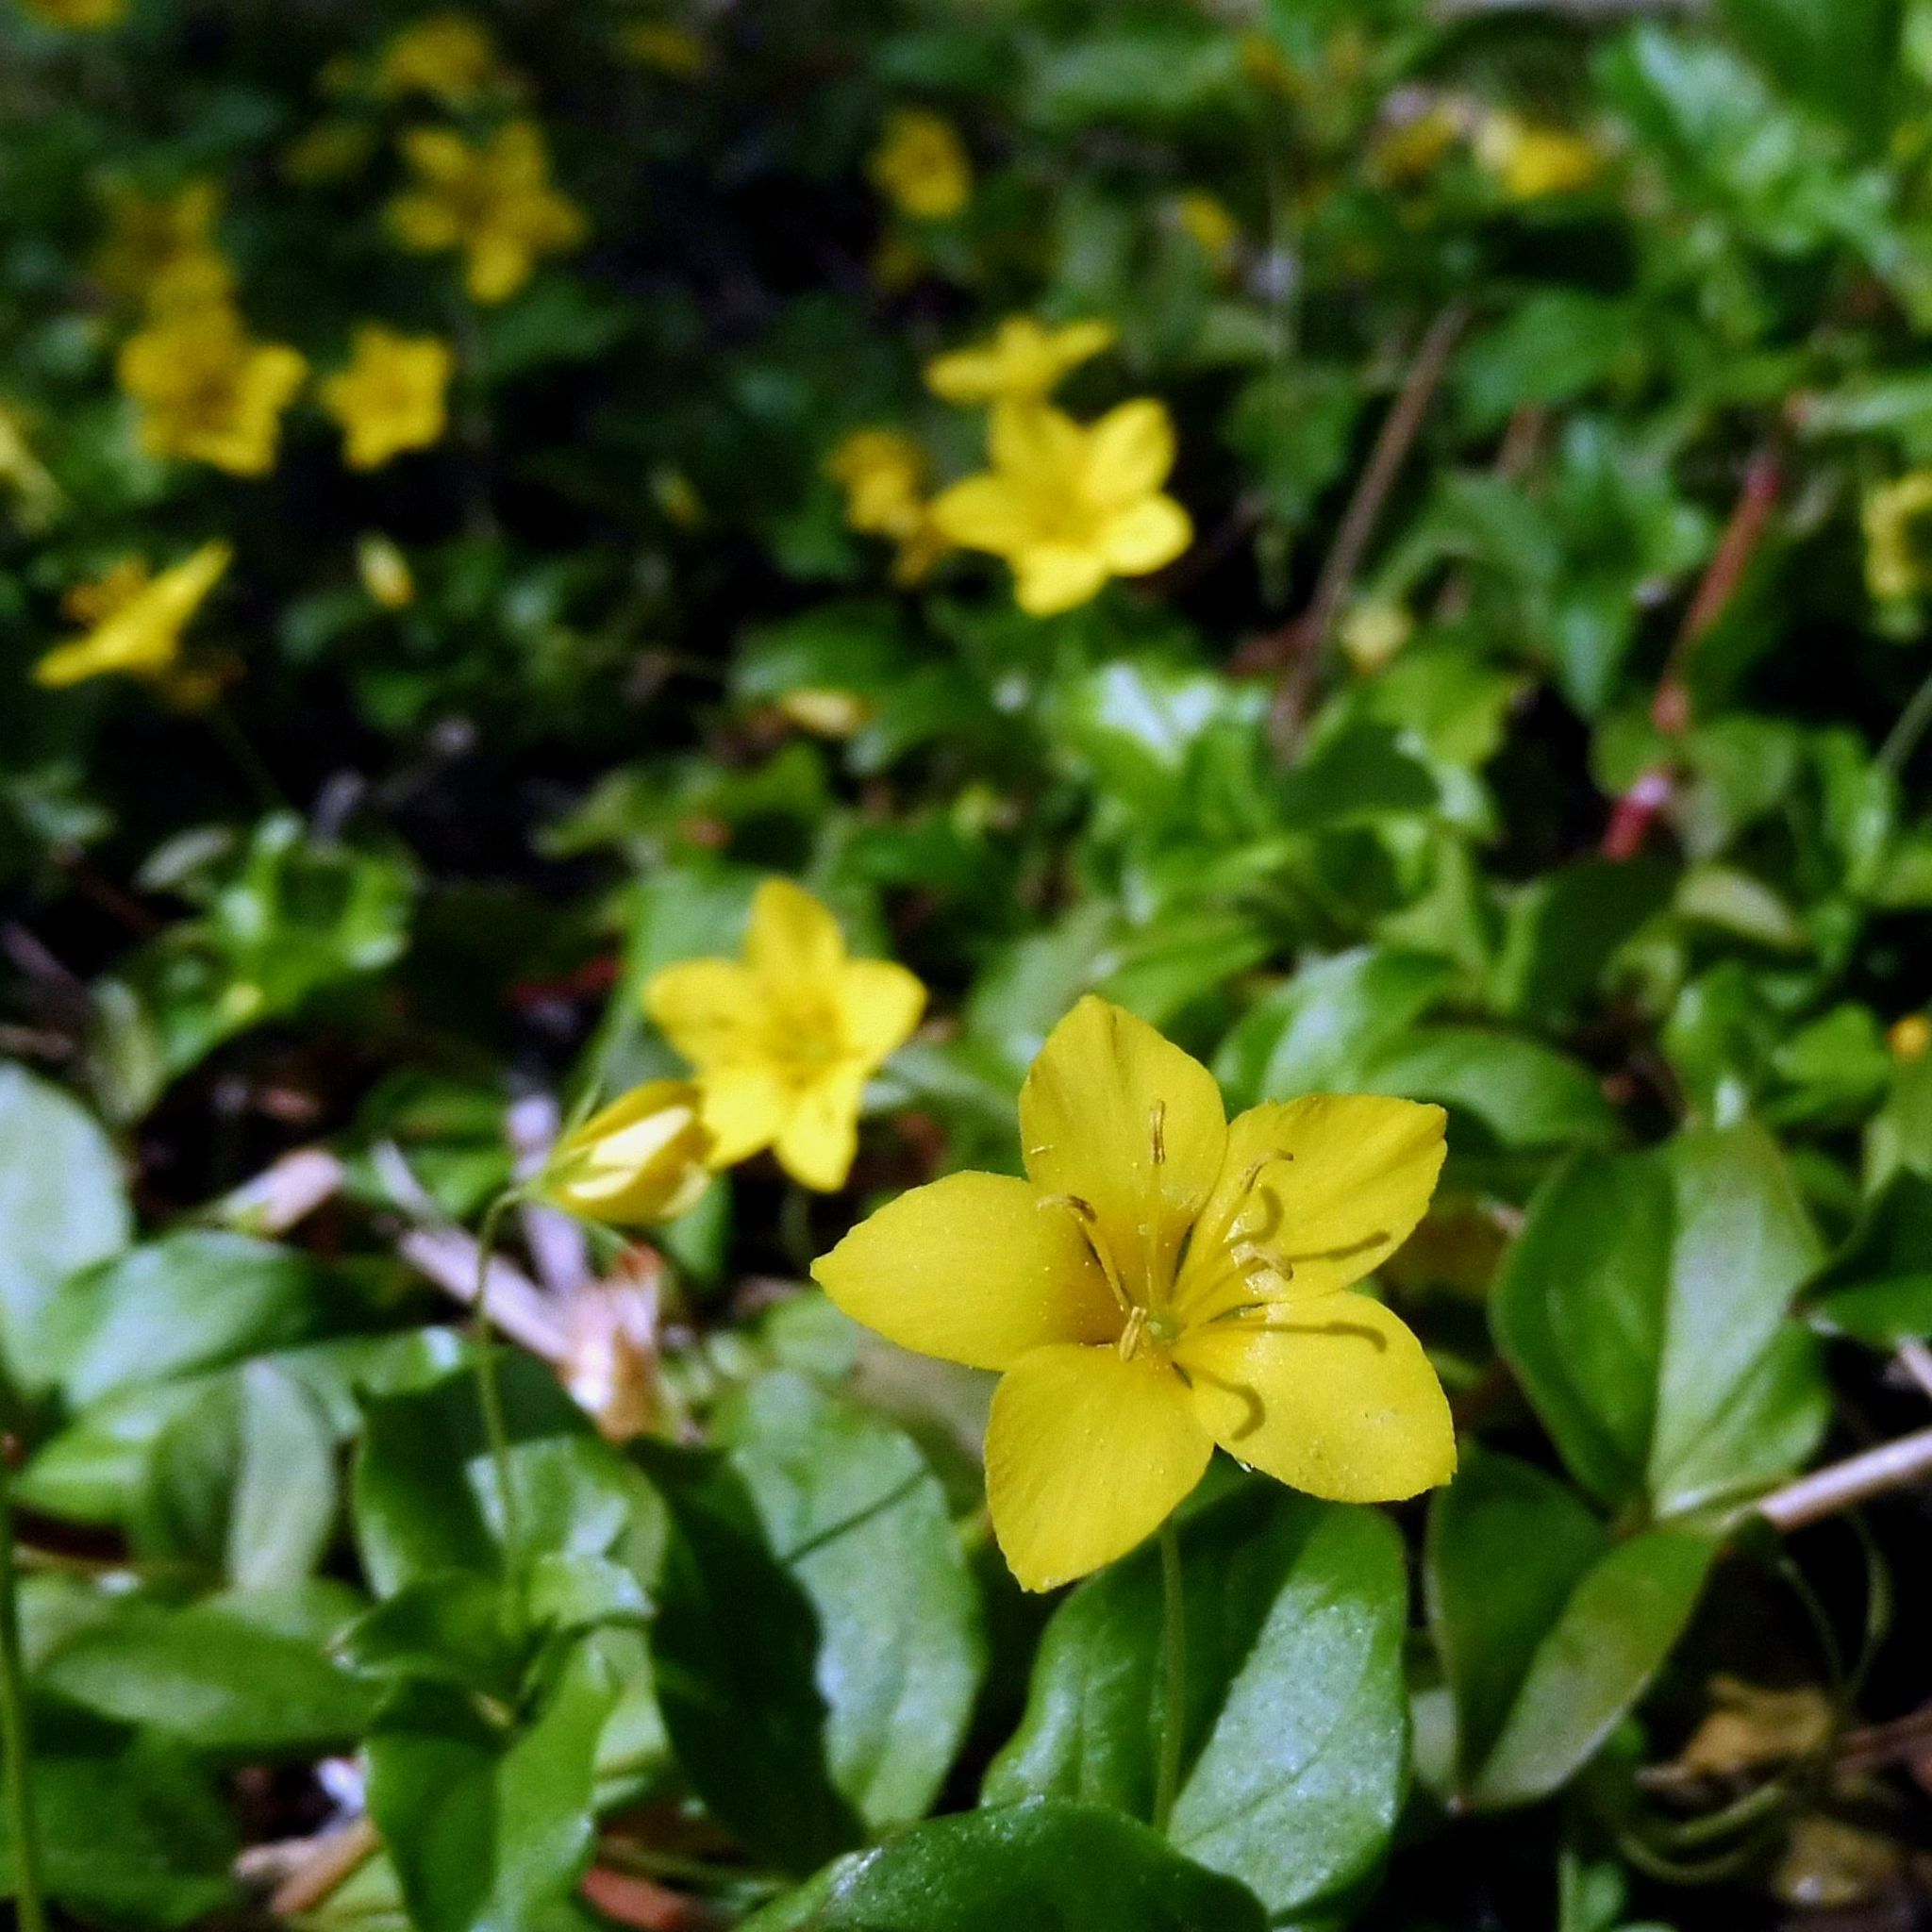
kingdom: Plantae
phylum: Tracheophyta
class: Magnoliopsida
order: Ericales
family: Primulaceae
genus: Lysimachia
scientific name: Lysimachia nemorum
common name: Yellow pimpernel
